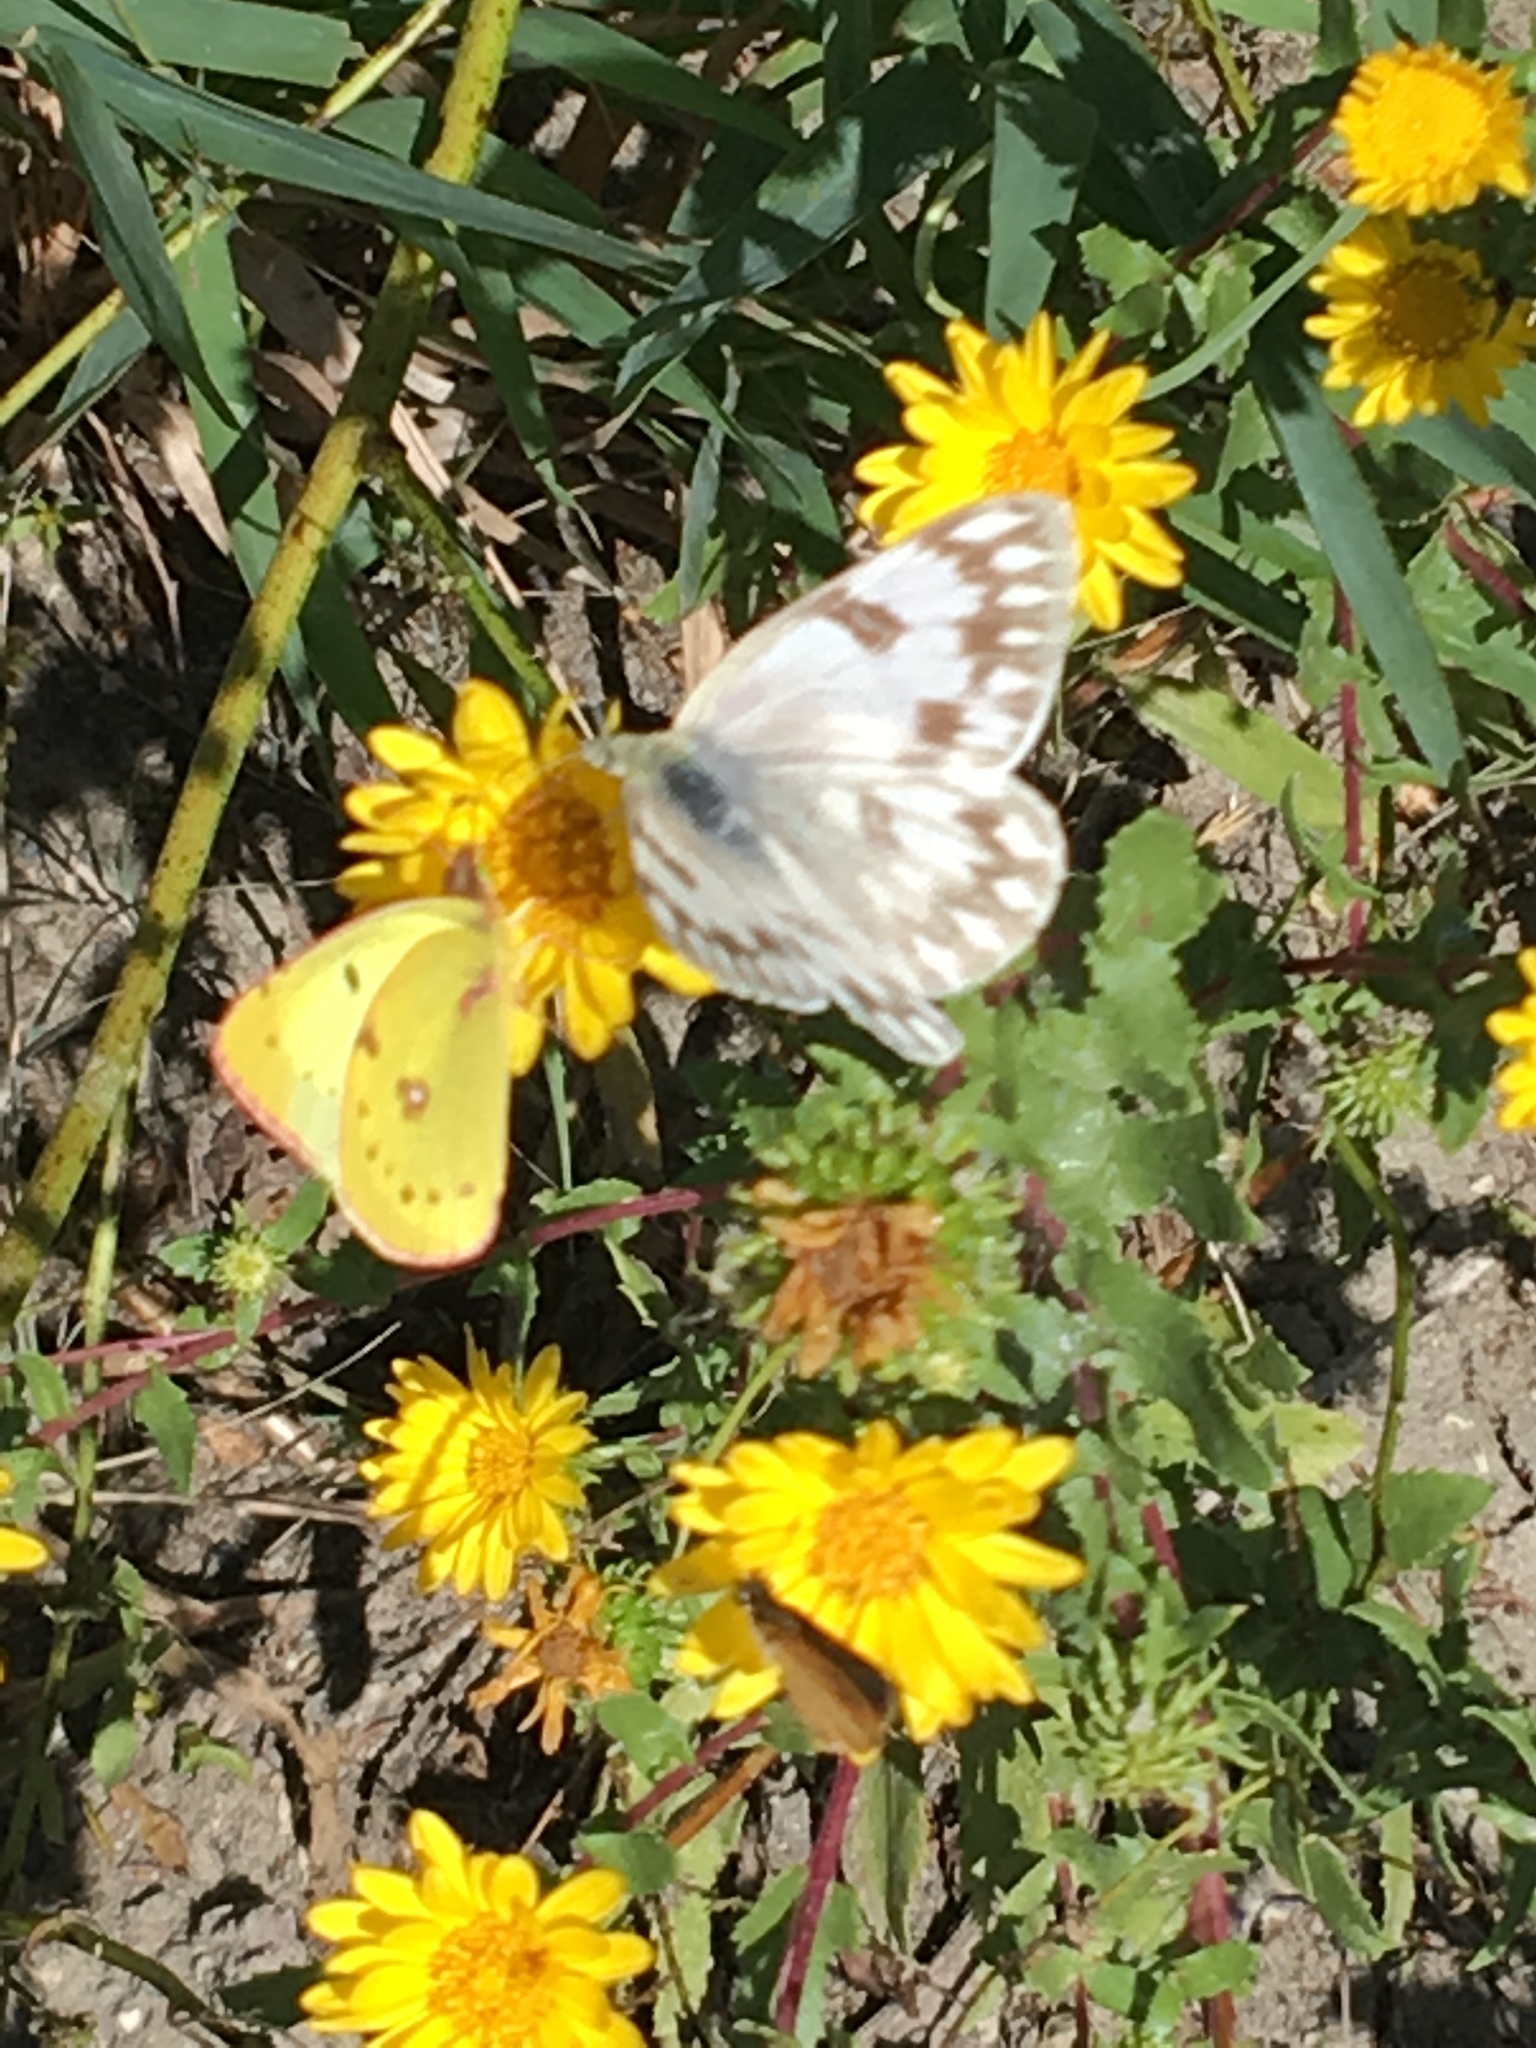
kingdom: Animalia
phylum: Arthropoda
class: Insecta
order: Lepidoptera
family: Pieridae
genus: Pontia
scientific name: Pontia protodice
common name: Checkered white
